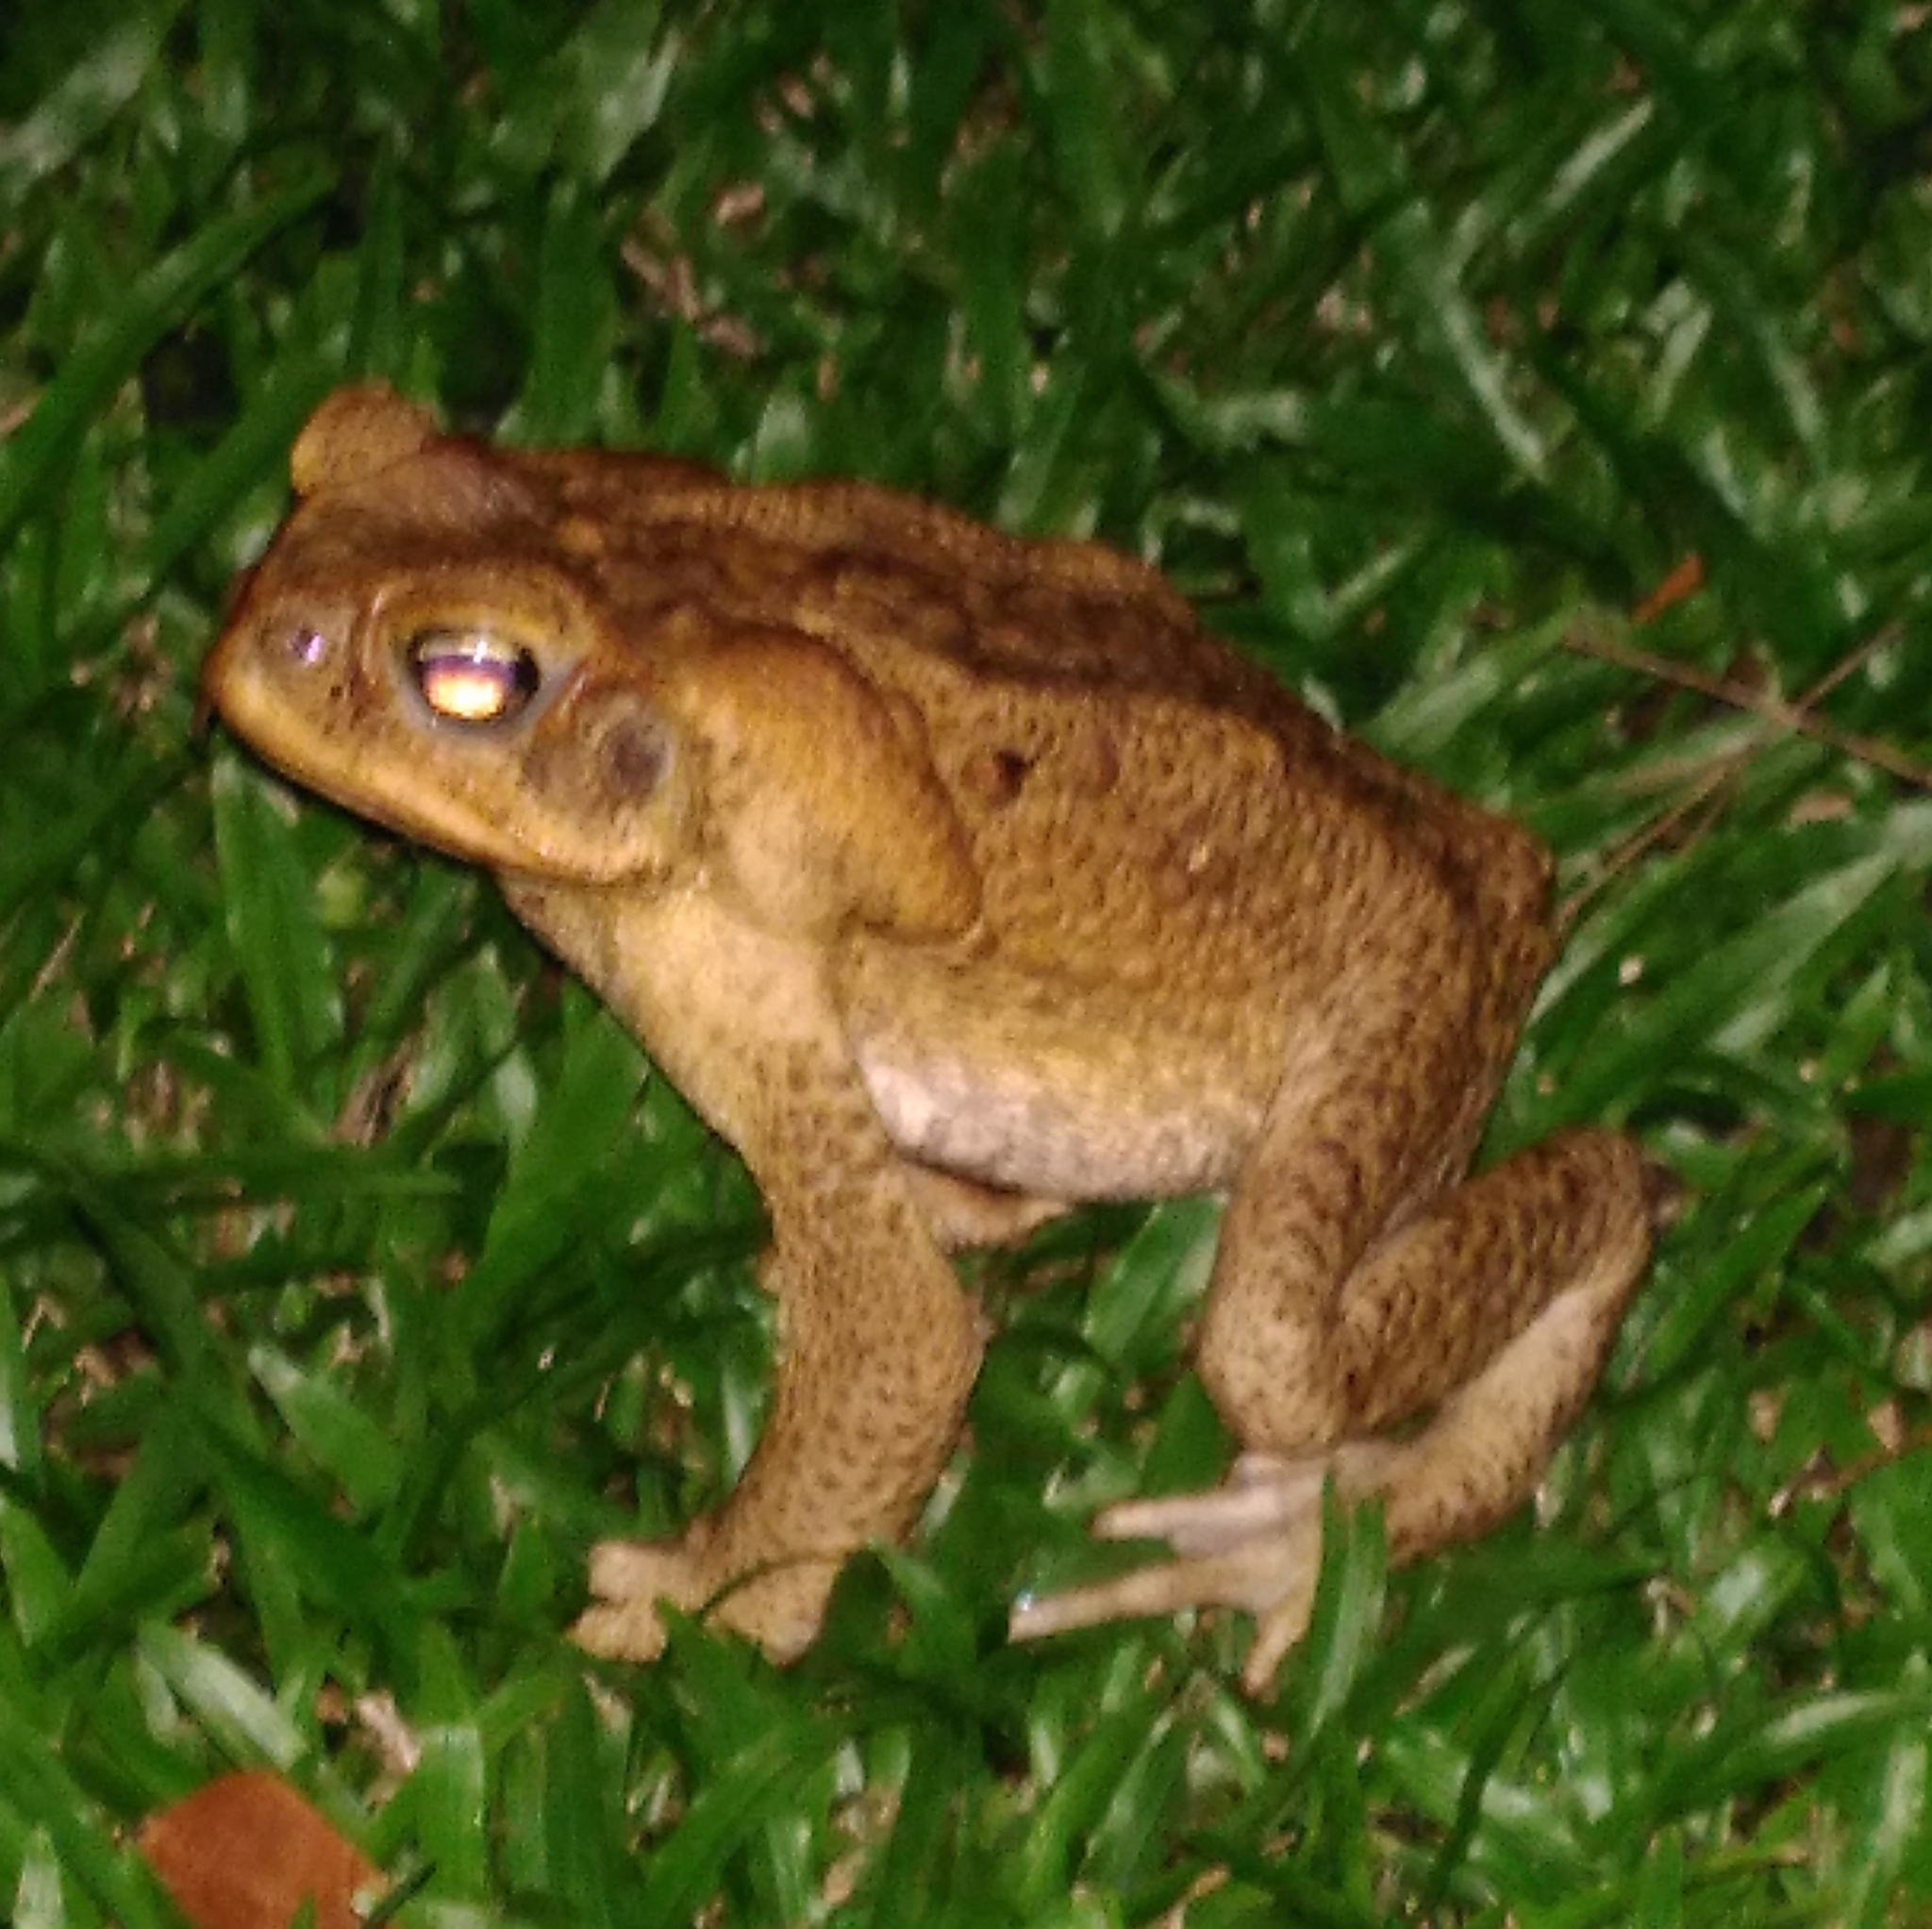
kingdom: Animalia
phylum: Chordata
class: Amphibia
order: Anura
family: Bufonidae
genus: Rhinella
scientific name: Rhinella marina
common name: Cane toad
